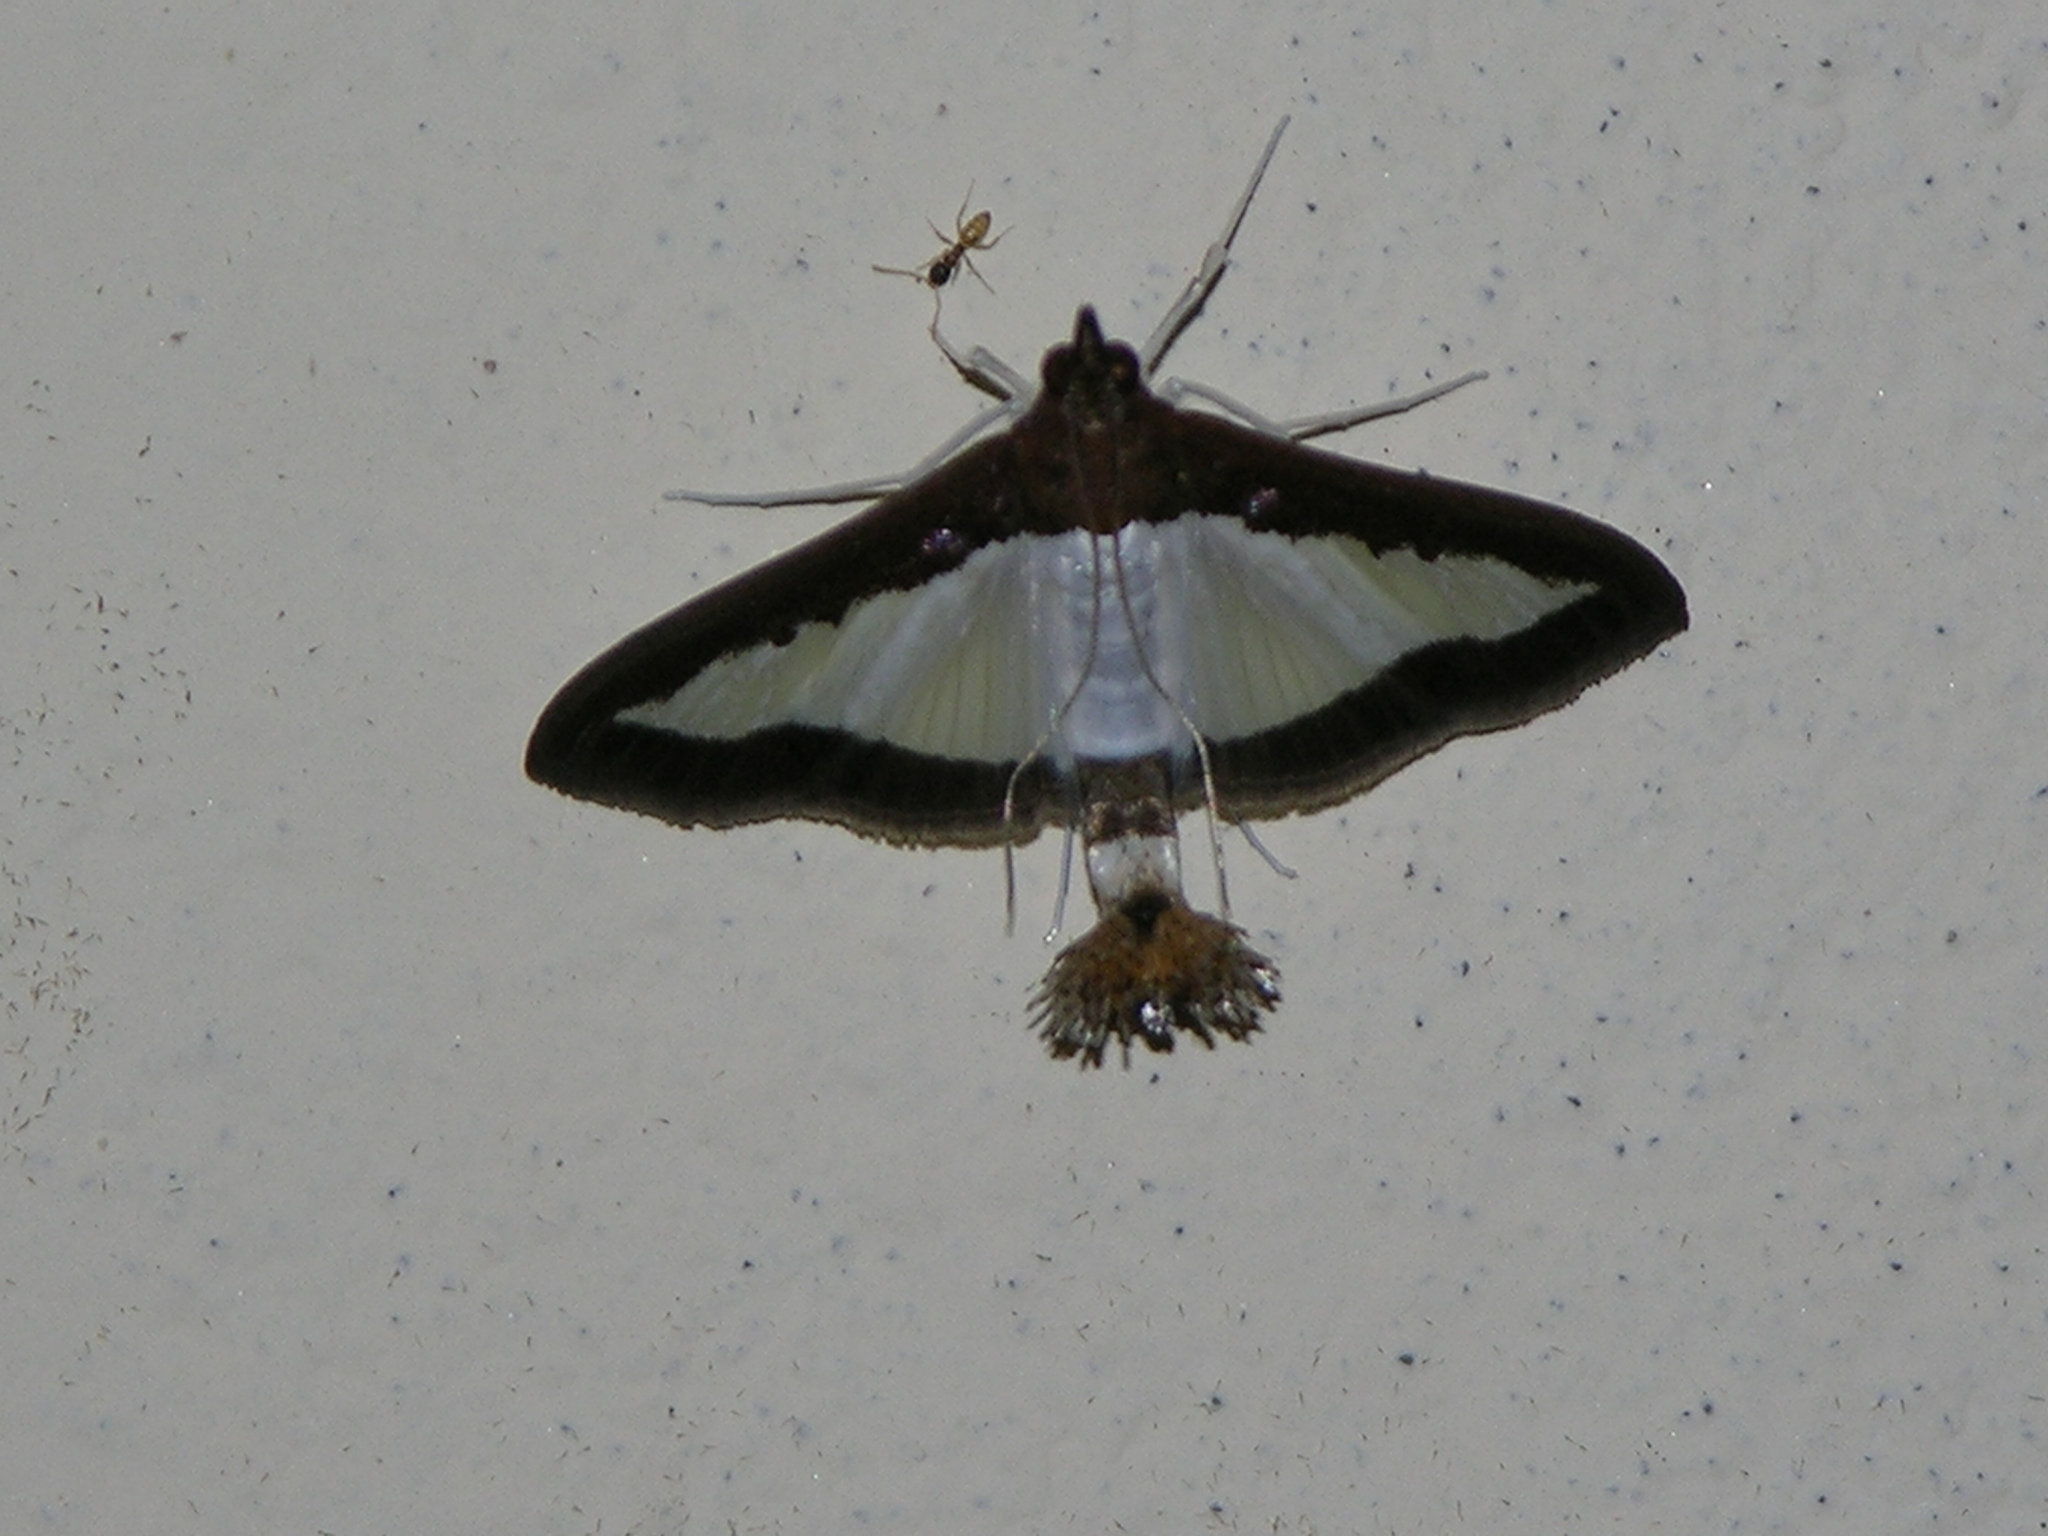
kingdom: Animalia
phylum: Arthropoda
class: Insecta
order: Lepidoptera
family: Crambidae
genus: Diaphania
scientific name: Diaphania indica
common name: Cucumber moth
